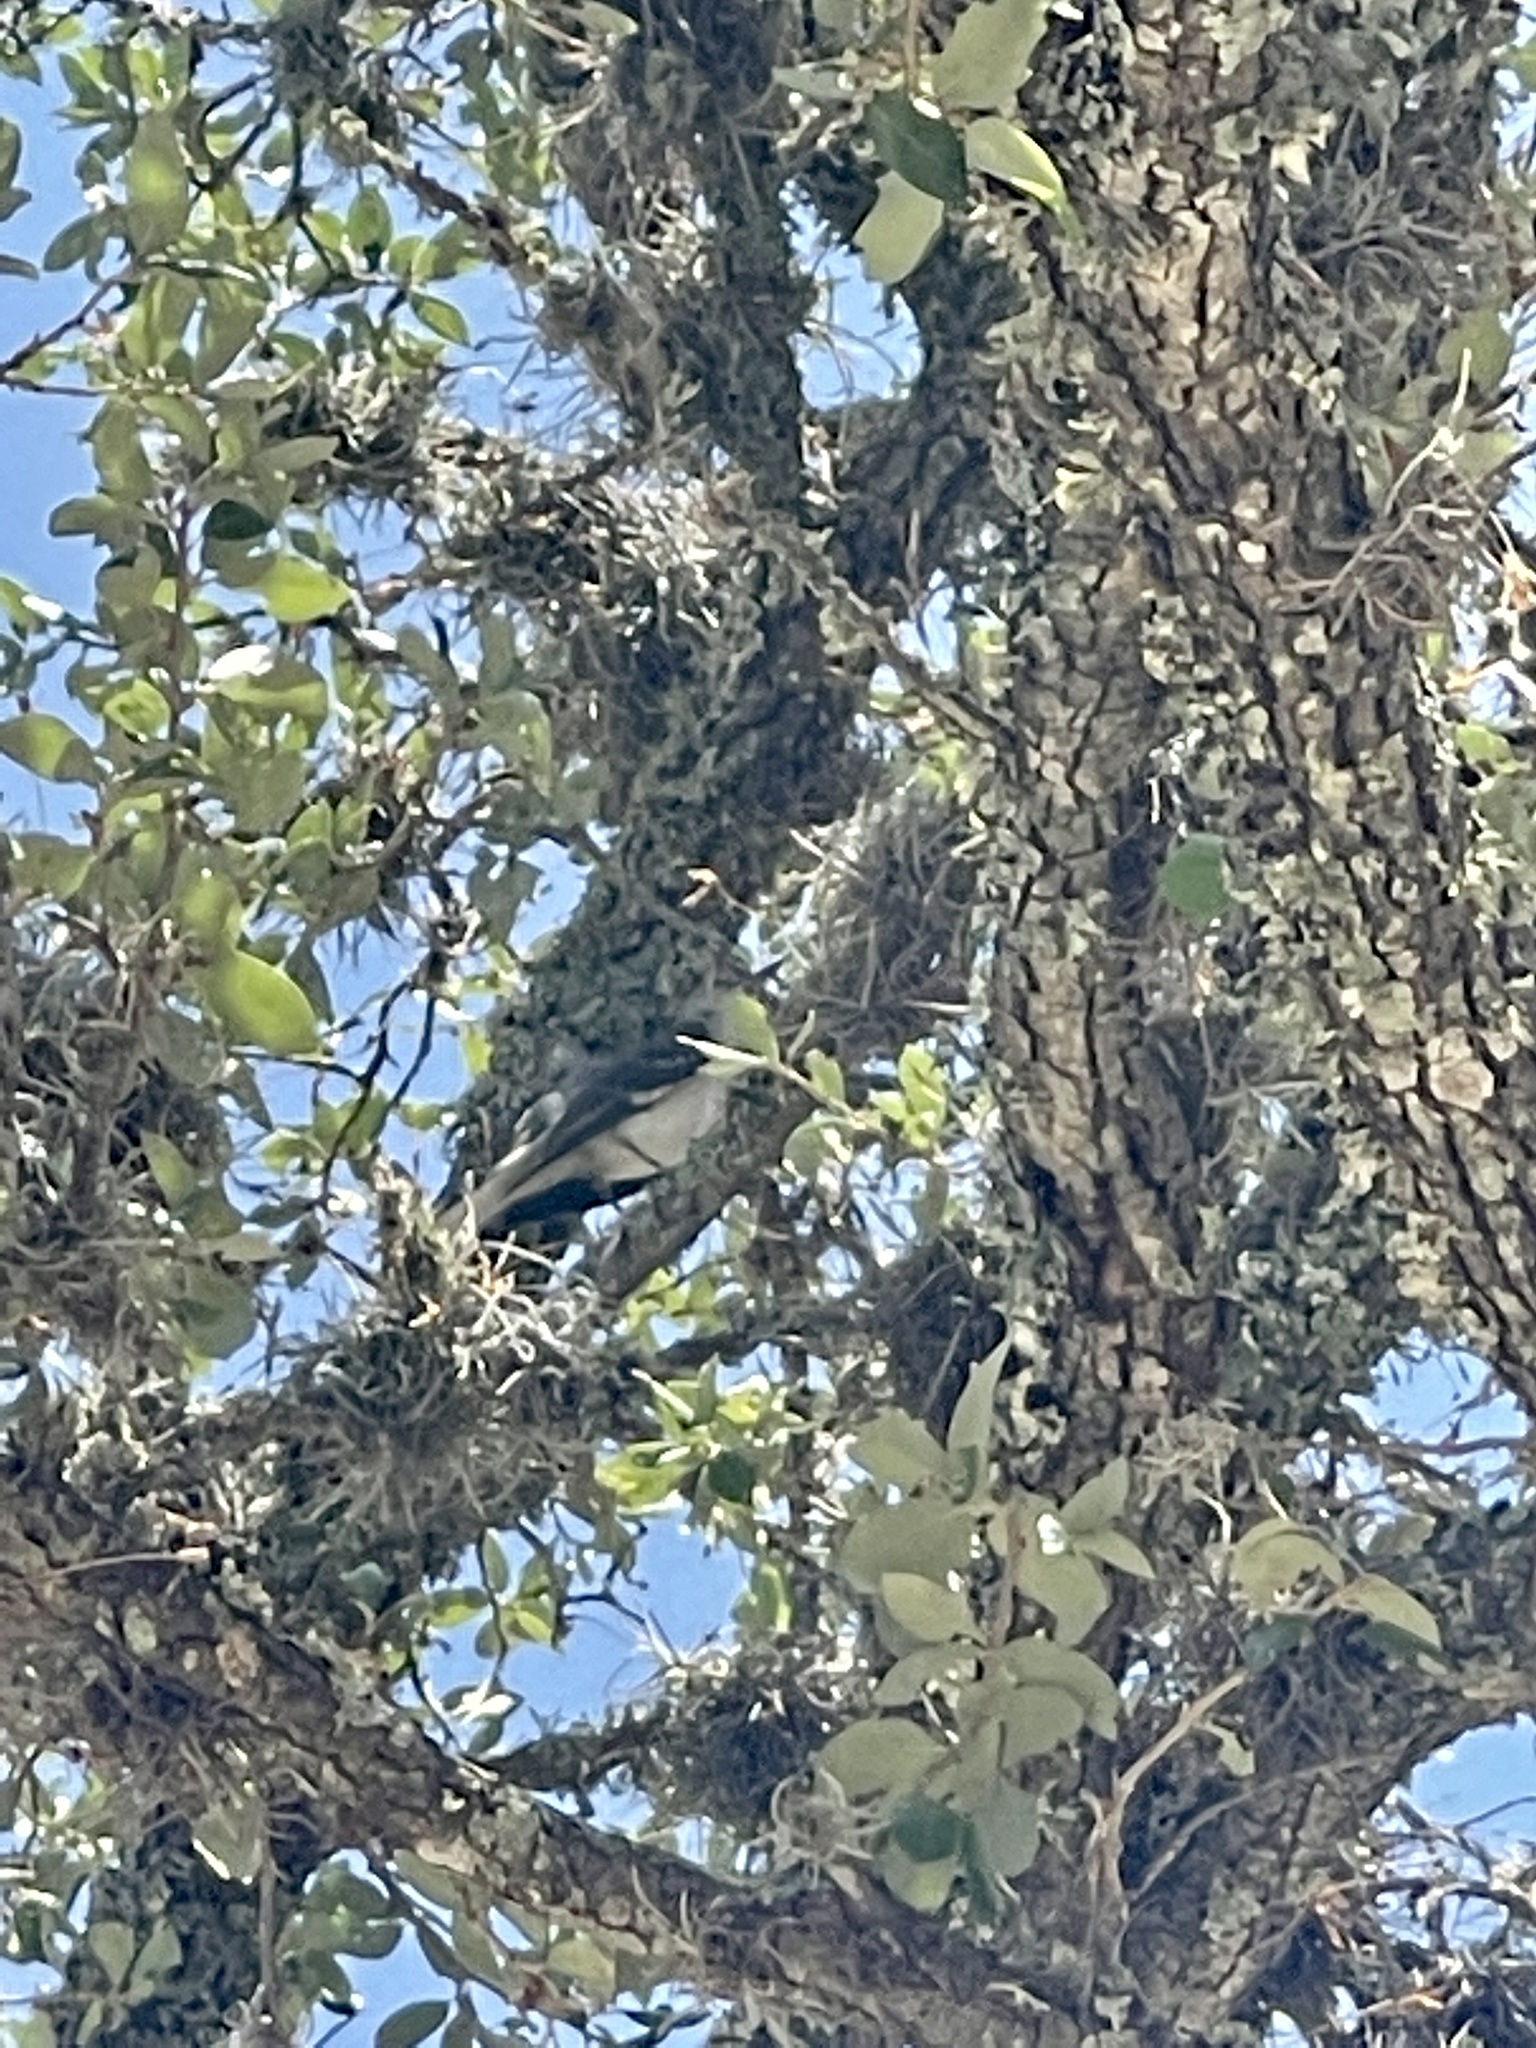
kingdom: Plantae
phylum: Tracheophyta
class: Magnoliopsida
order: Fagales
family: Fagaceae
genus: Quercus
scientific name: Quercus fusiformis
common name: Texas live oak
